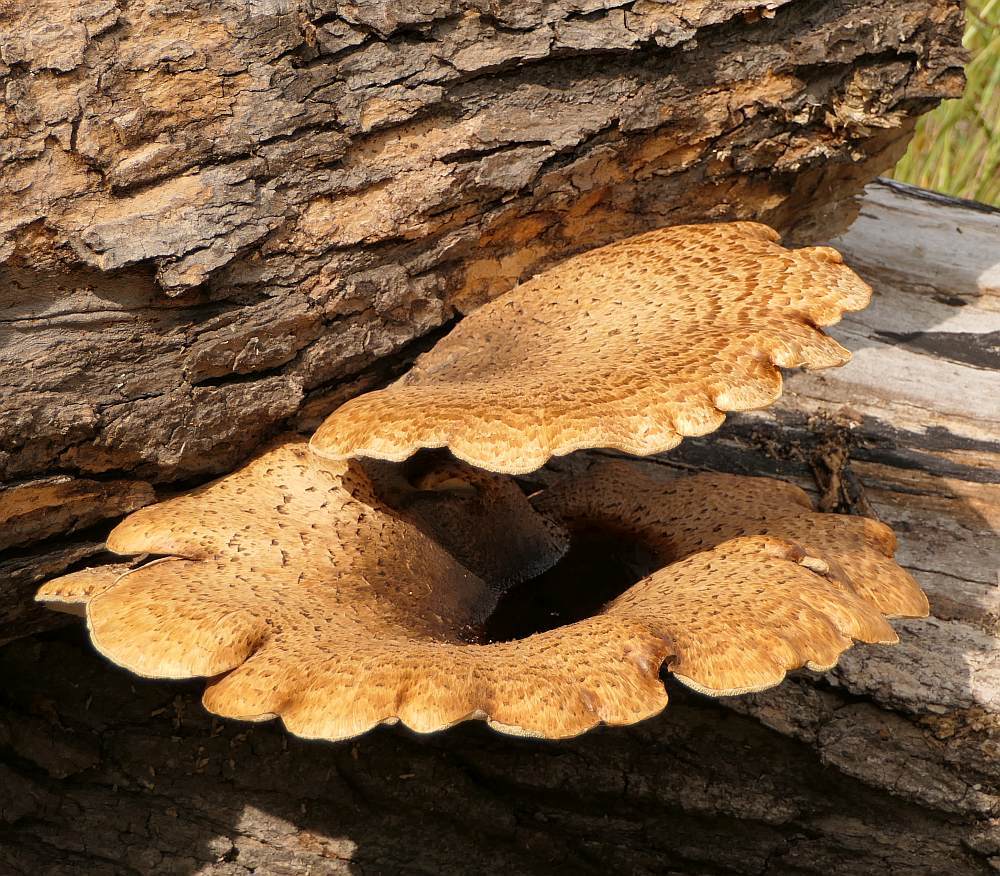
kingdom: Fungi
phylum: Basidiomycota
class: Agaricomycetes
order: Polyporales
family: Polyporaceae
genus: Cerioporus
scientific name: Cerioporus squamosus
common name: Dryad's saddle
